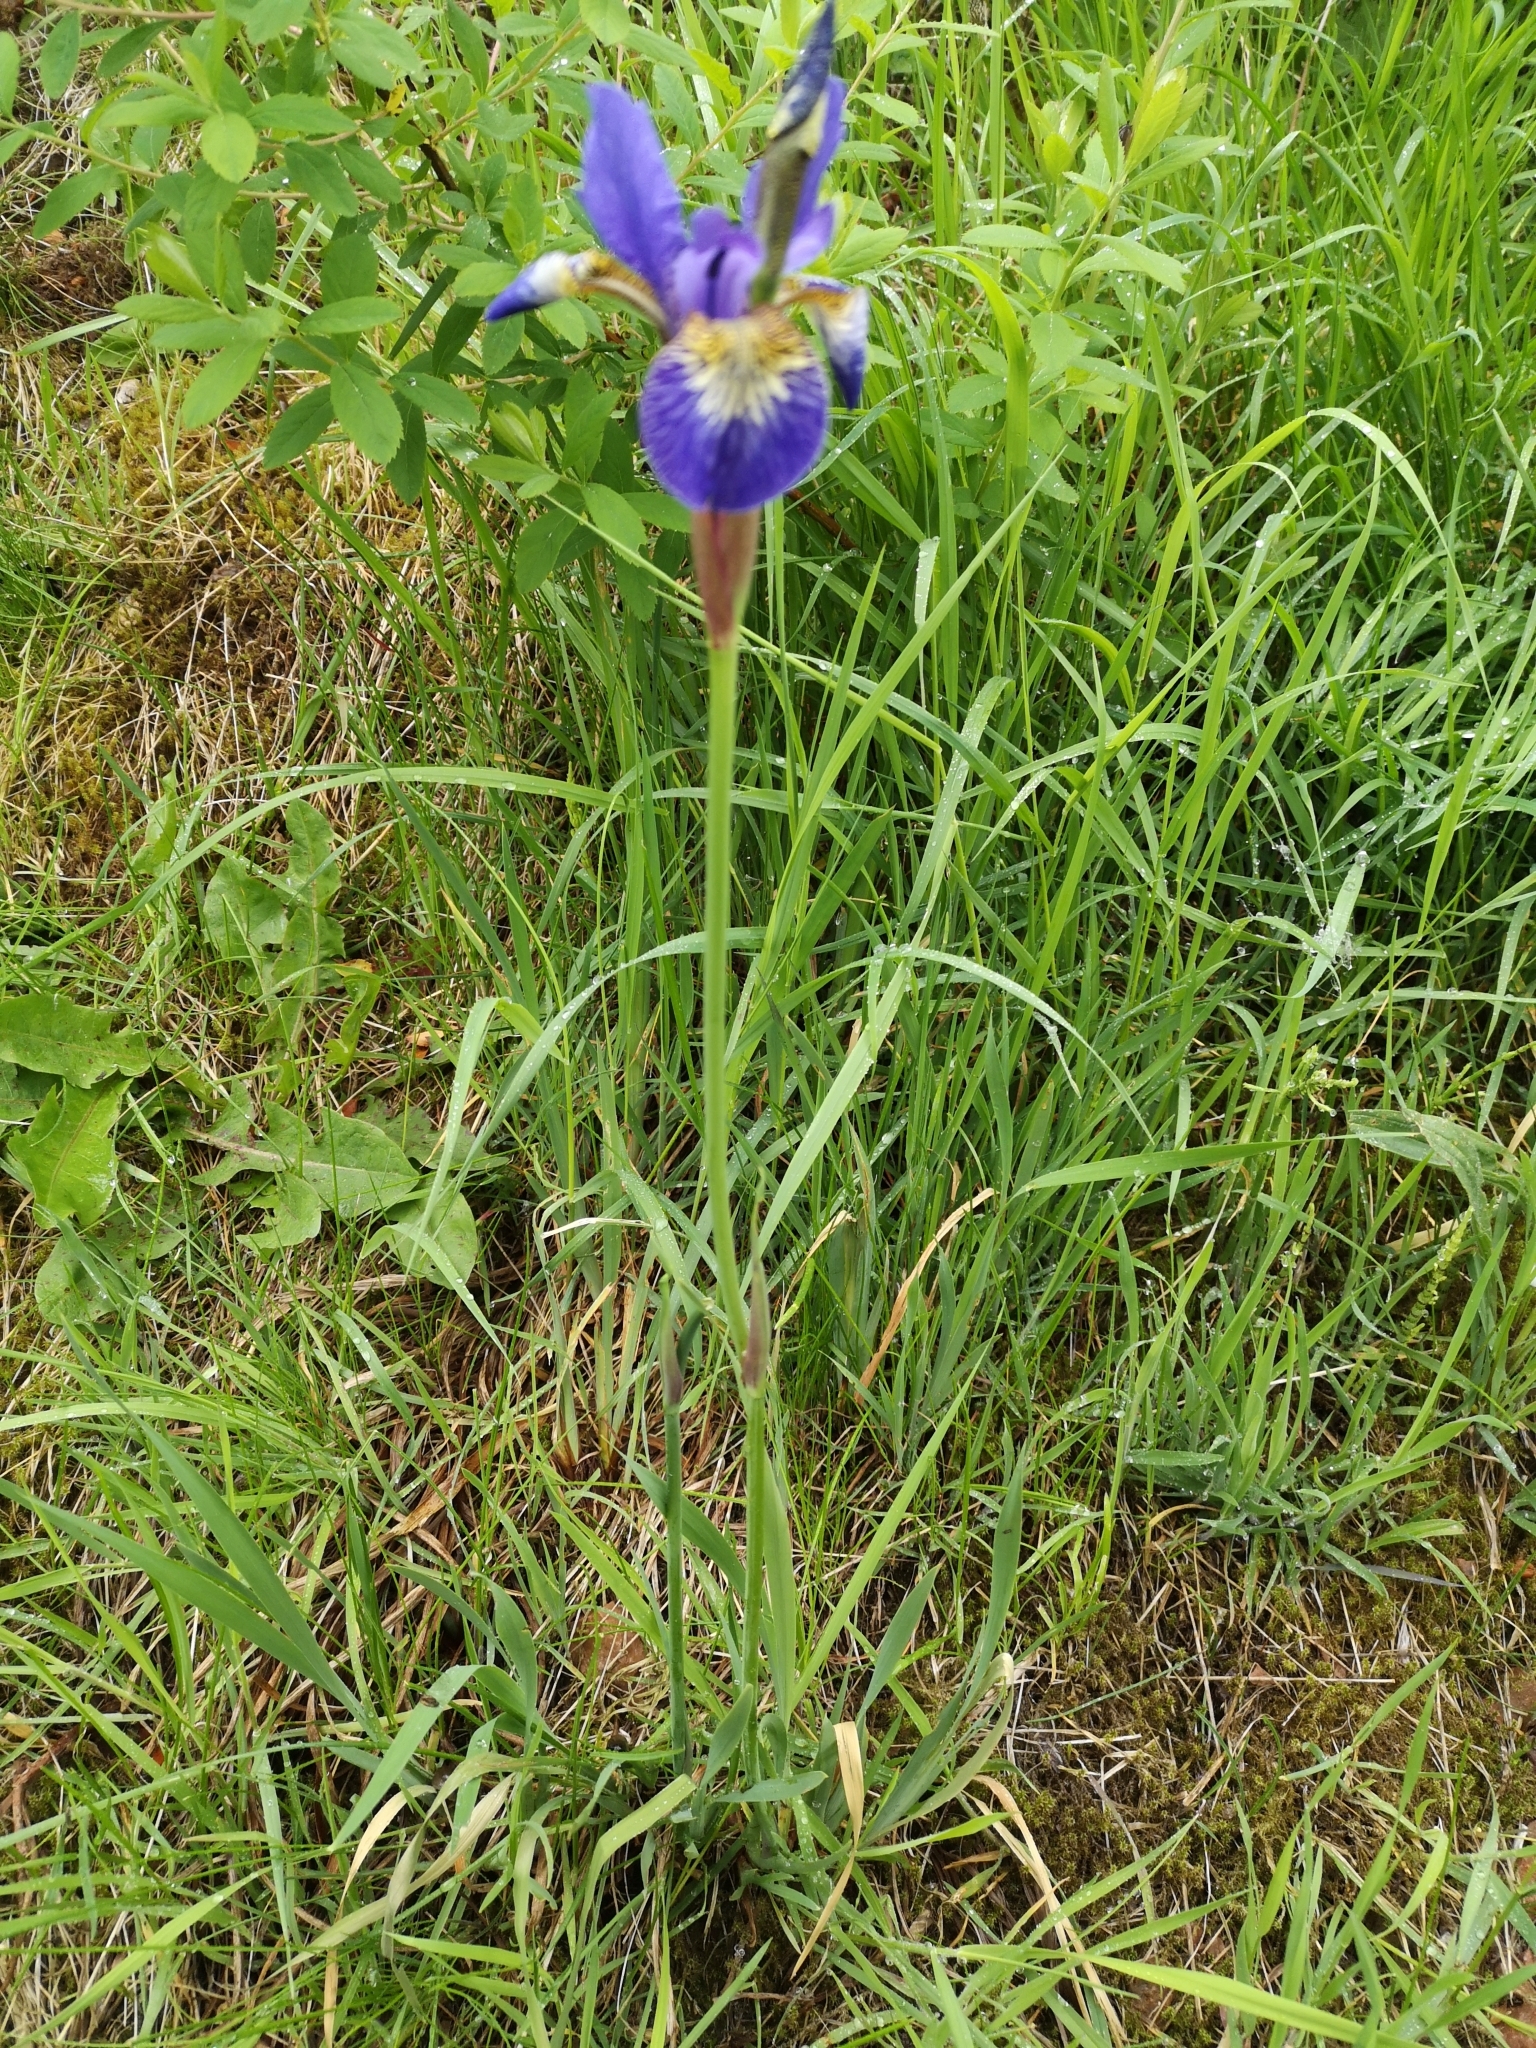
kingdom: Plantae
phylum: Tracheophyta
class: Liliopsida
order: Asparagales
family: Iridaceae
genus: Iris
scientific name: Iris sanguinea
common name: Blood iris
